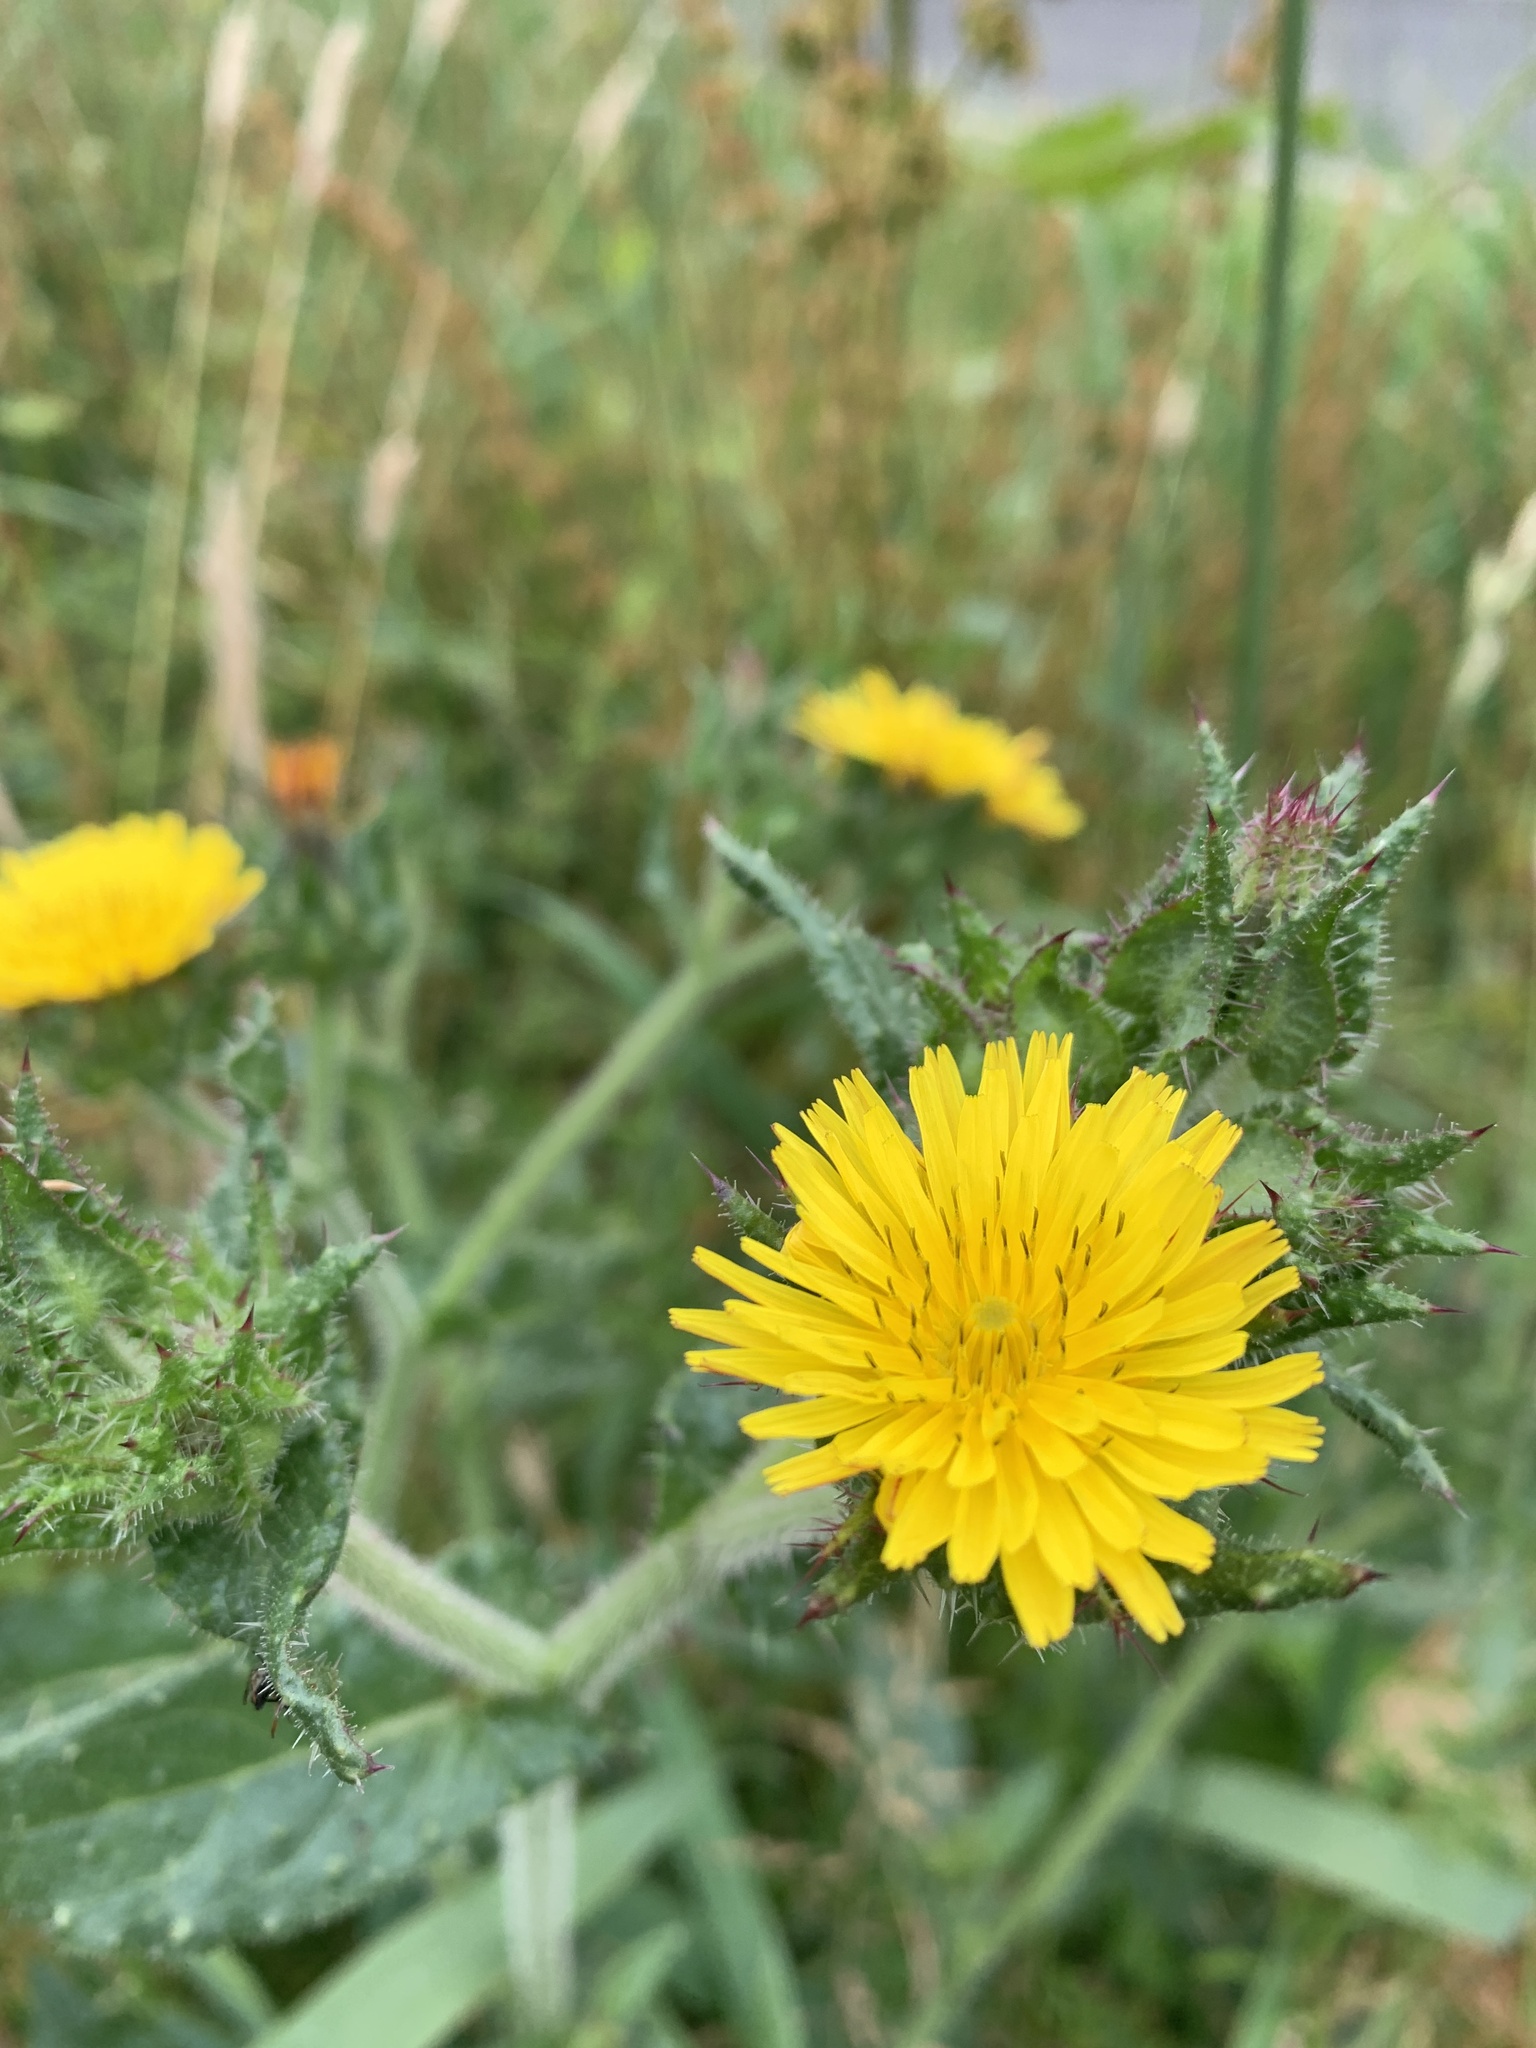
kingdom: Plantae
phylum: Tracheophyta
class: Magnoliopsida
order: Asterales
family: Asteraceae
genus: Helminthotheca
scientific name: Helminthotheca echioides
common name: Ox-tongue
